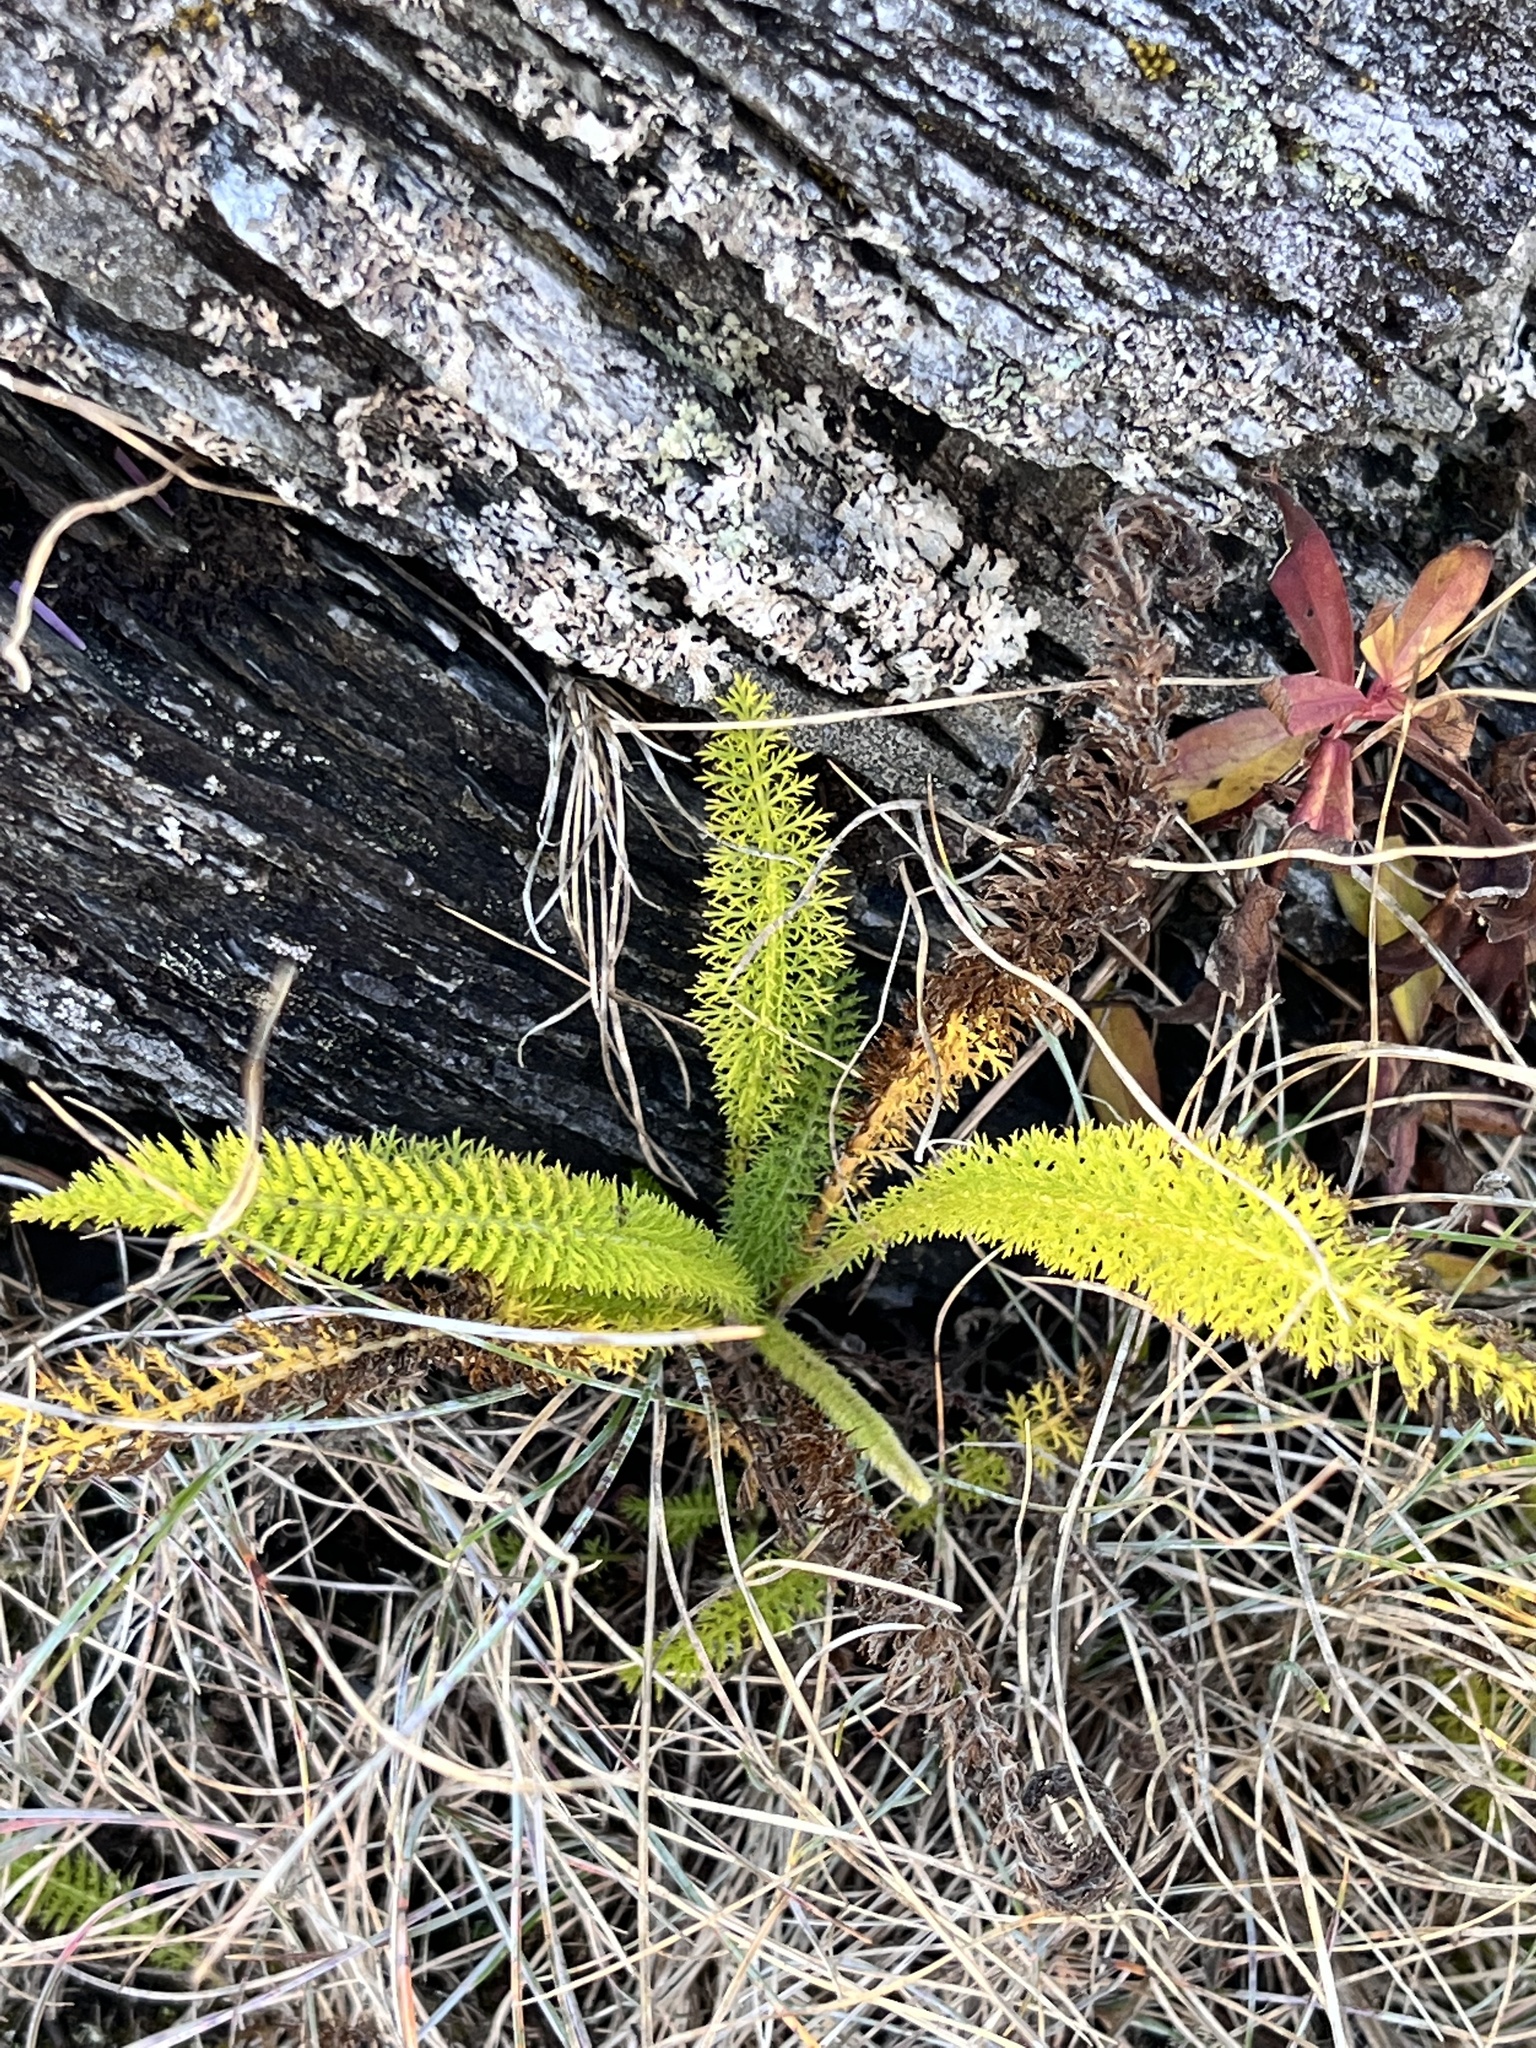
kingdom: Plantae
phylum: Tracheophyta
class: Magnoliopsida
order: Asterales
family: Asteraceae
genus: Achillea
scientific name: Achillea millefolium
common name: Yarrow
